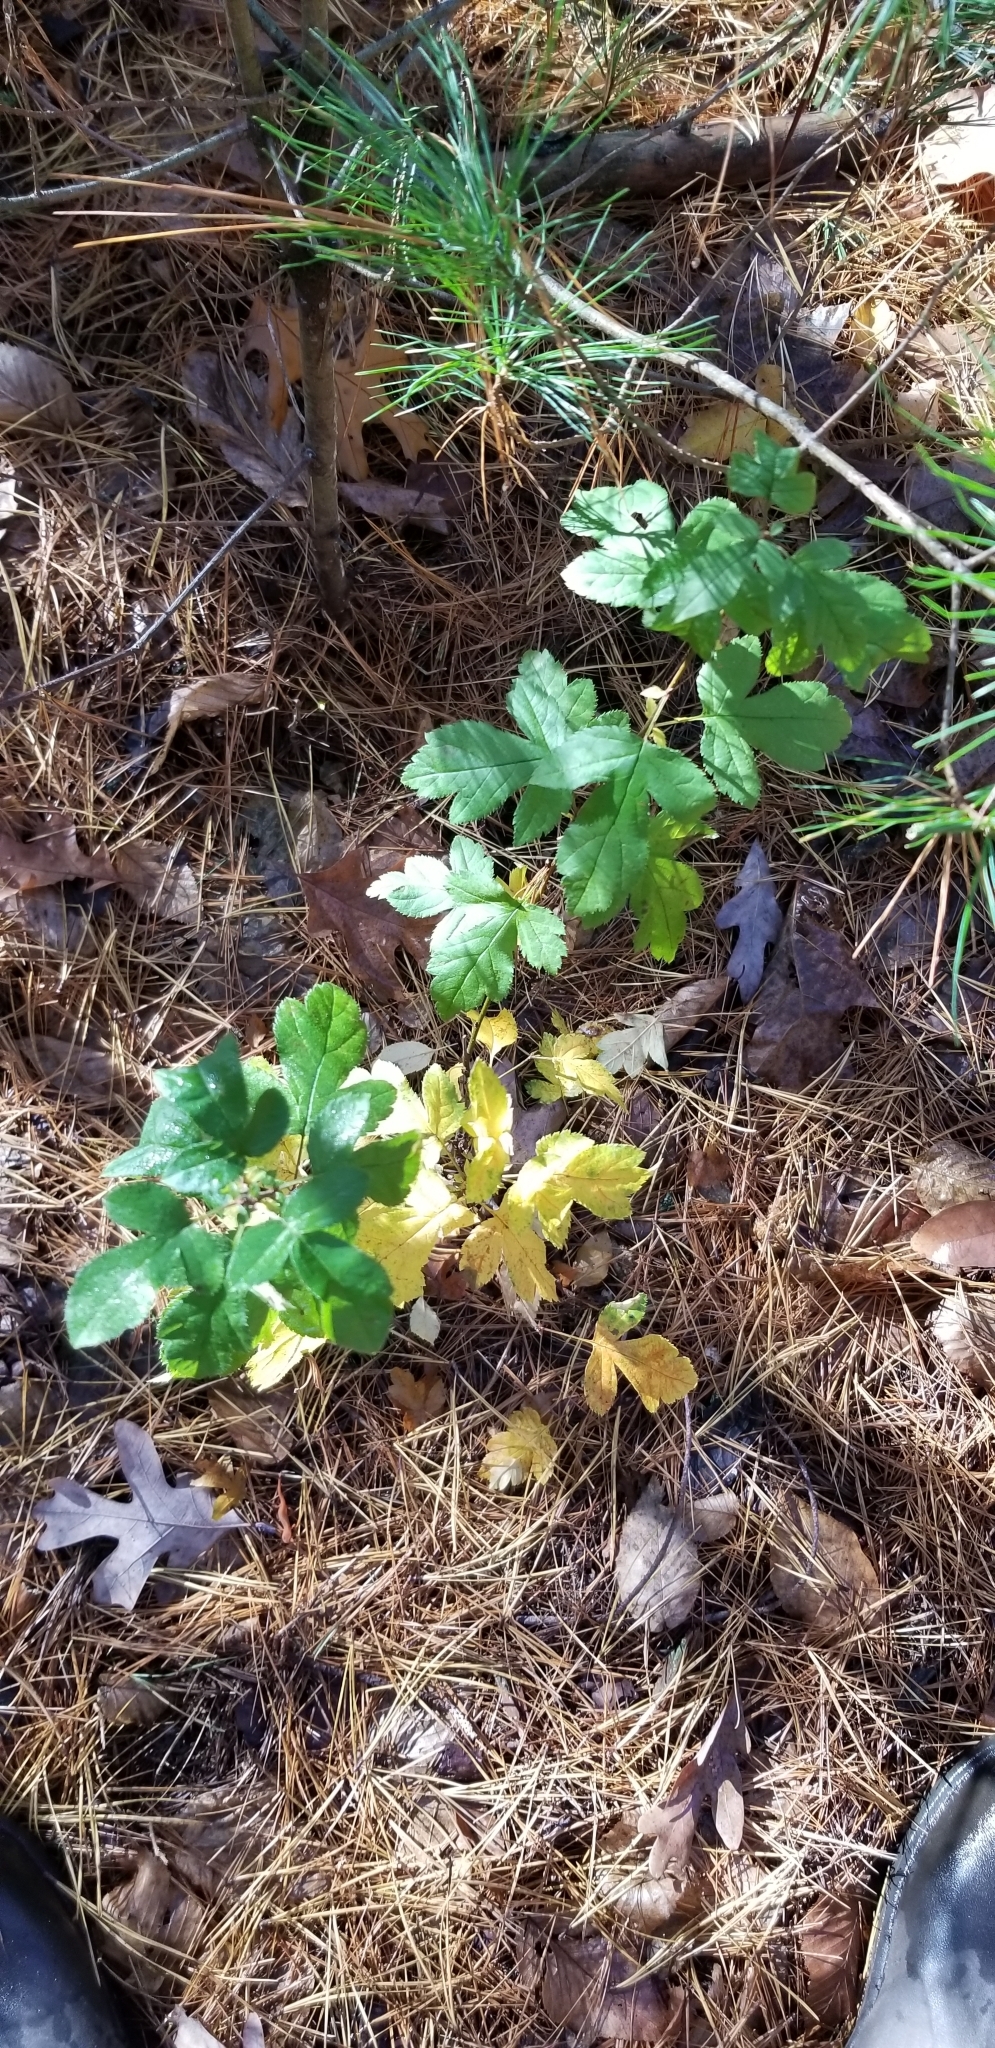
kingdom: Plantae
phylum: Tracheophyta
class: Magnoliopsida
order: Rosales
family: Rosaceae
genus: Malus
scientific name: Malus toringo
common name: Japanese crabapple
